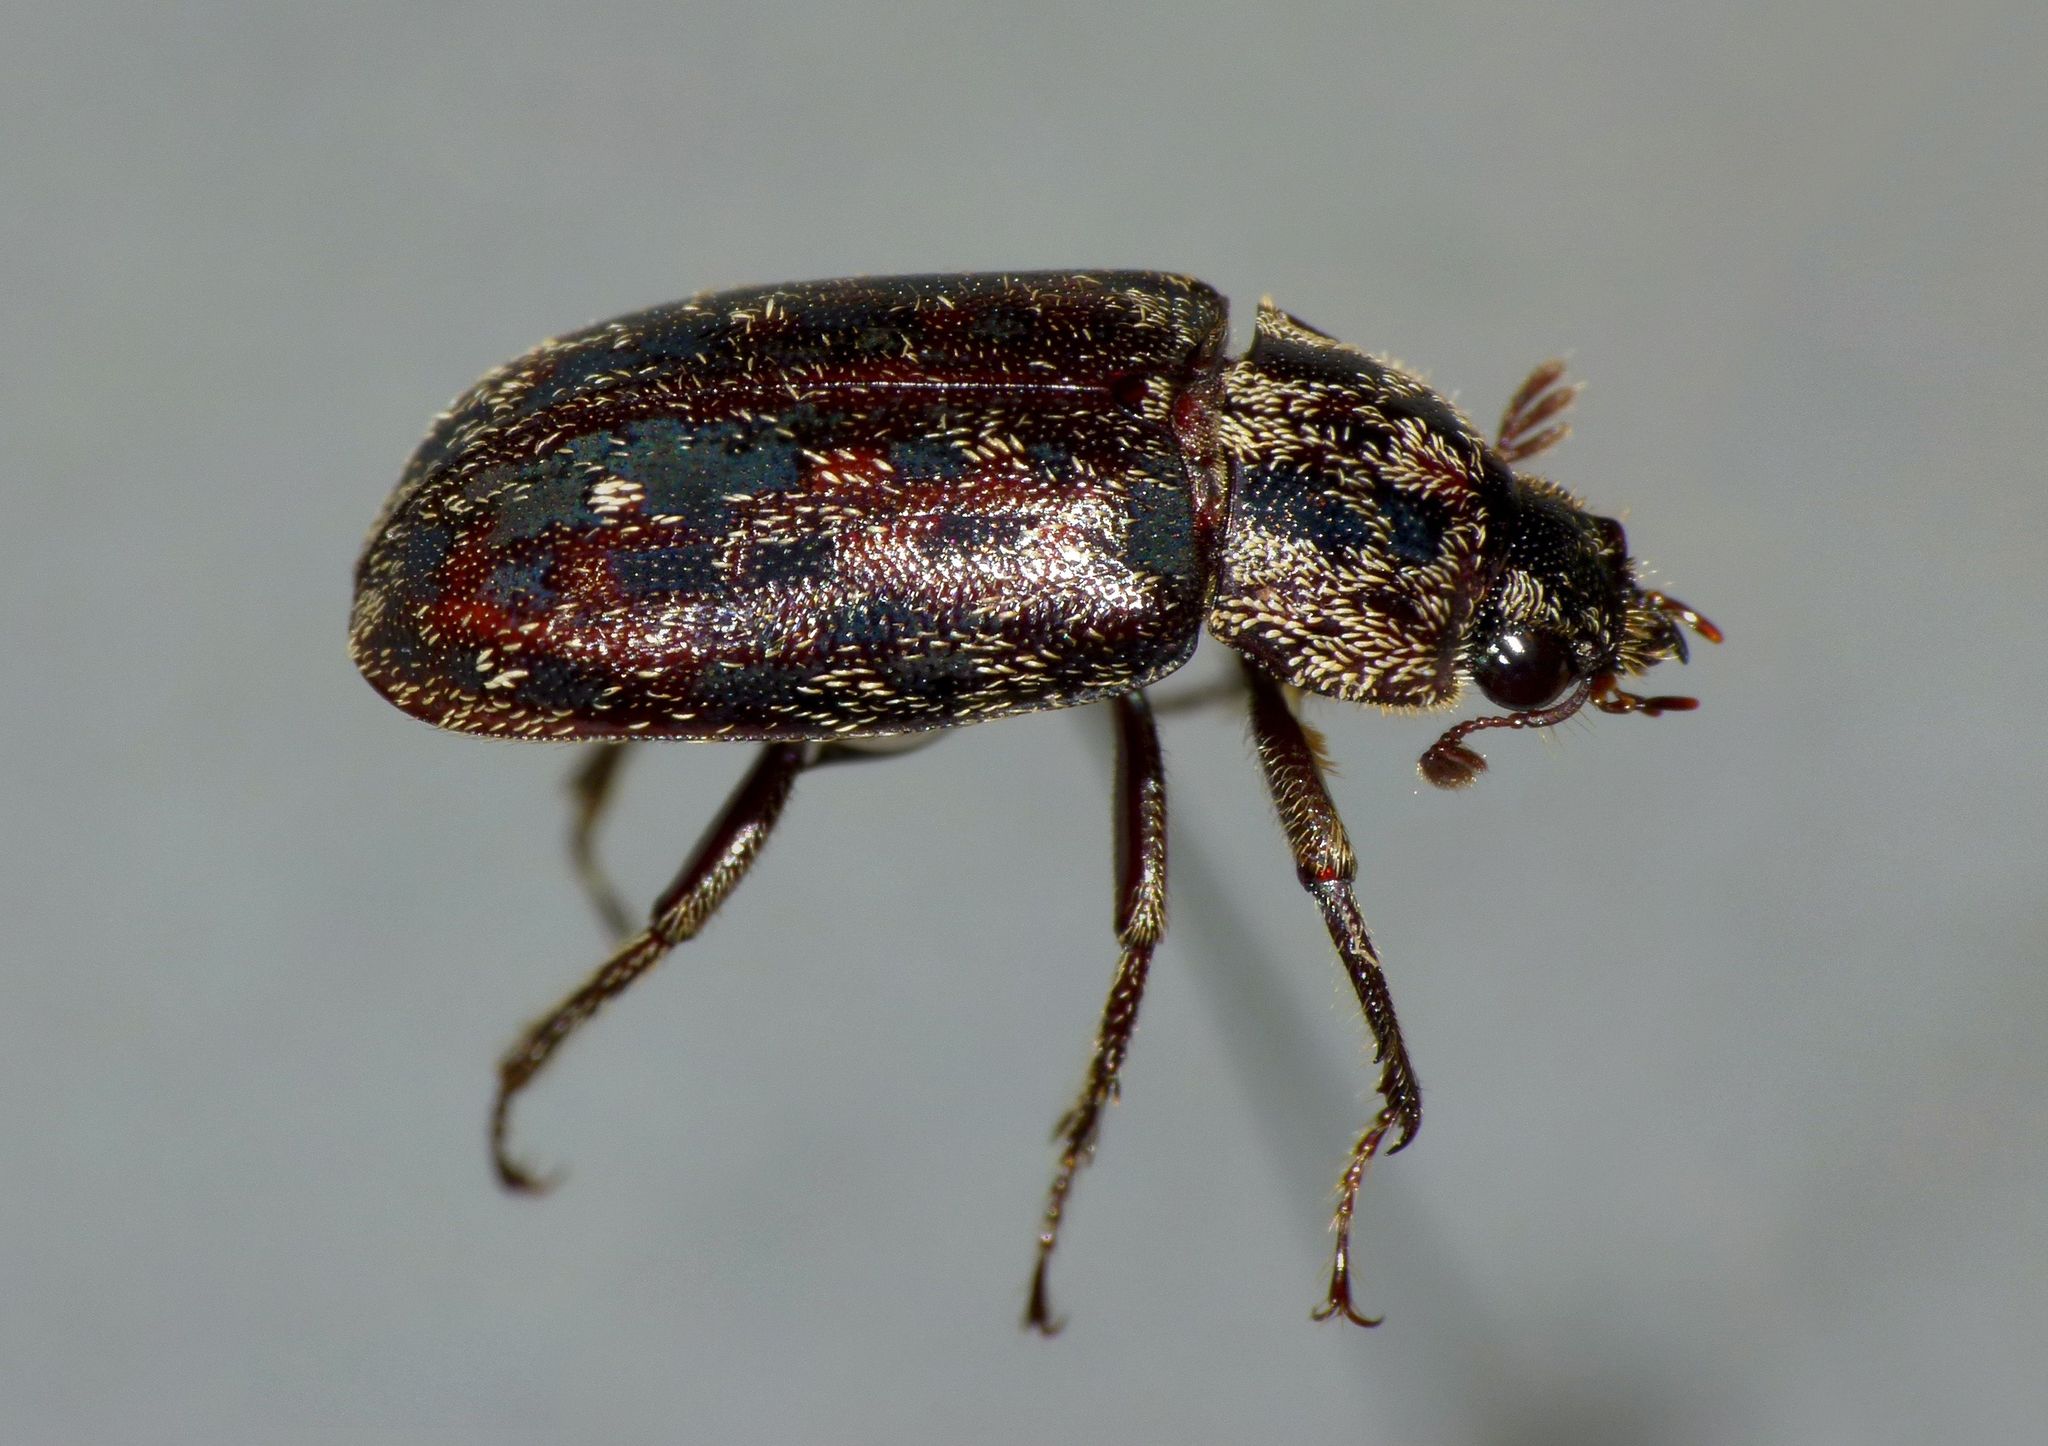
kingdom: Animalia
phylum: Arthropoda
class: Insecta
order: Coleoptera
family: Lucanidae
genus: Mitophyllus
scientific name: Mitophyllus irroratus
